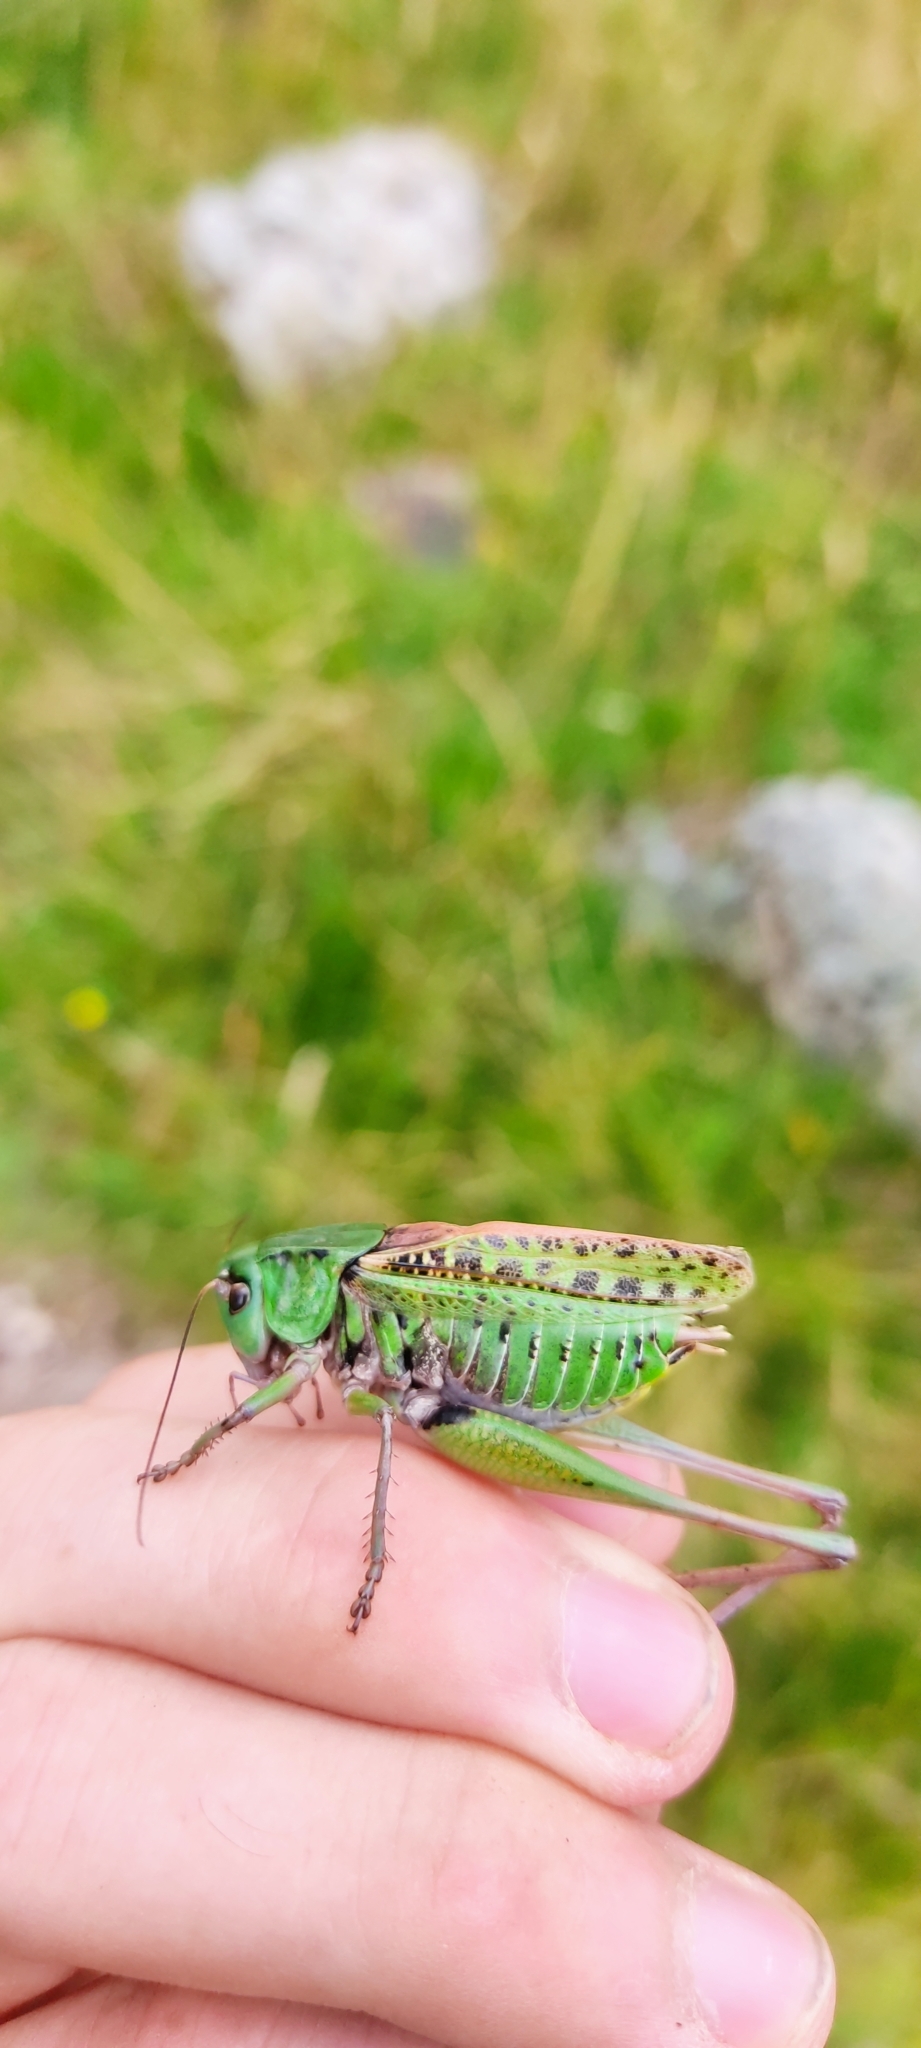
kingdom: Animalia
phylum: Arthropoda
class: Insecta
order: Orthoptera
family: Tettigoniidae
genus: Decticus
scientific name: Decticus verrucivorus
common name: Wart-biter
